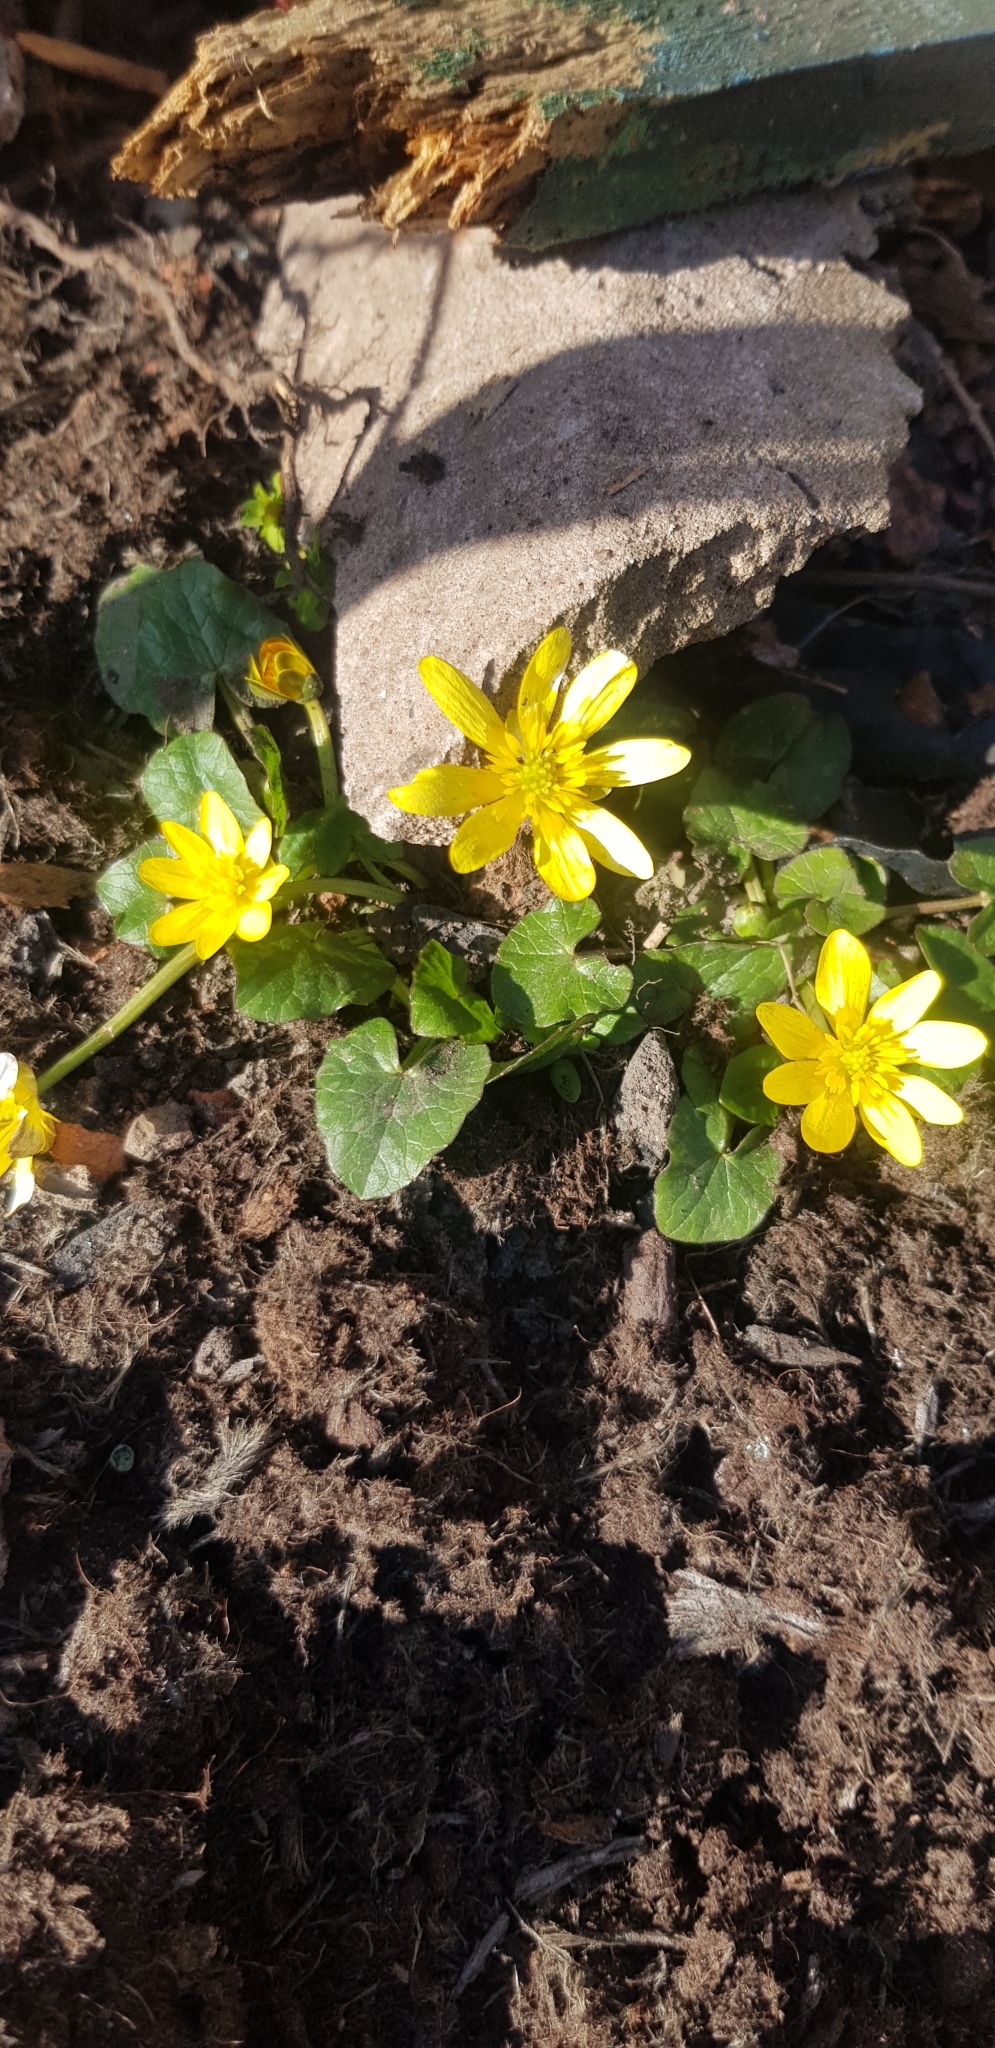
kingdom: Plantae
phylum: Tracheophyta
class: Magnoliopsida
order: Ranunculales
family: Ranunculaceae
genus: Ficaria
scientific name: Ficaria verna
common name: Lesser celandine
